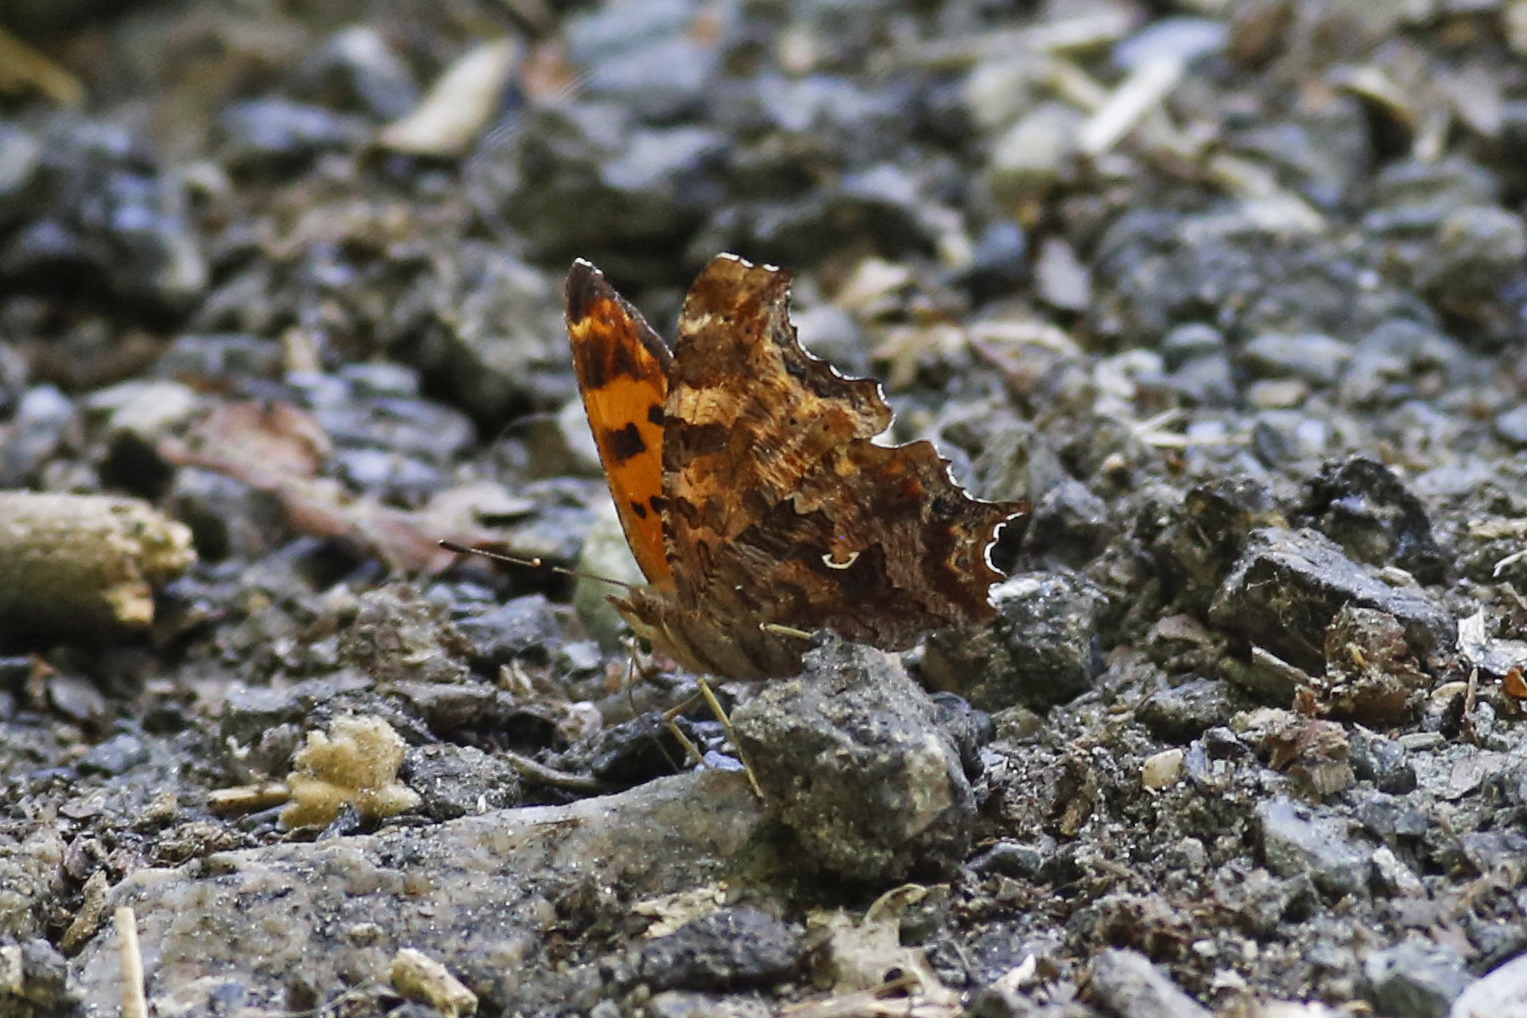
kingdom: Animalia
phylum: Arthropoda
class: Insecta
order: Lepidoptera
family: Nymphalidae
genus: Polygonia
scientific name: Polygonia comma
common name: Eastern comma
